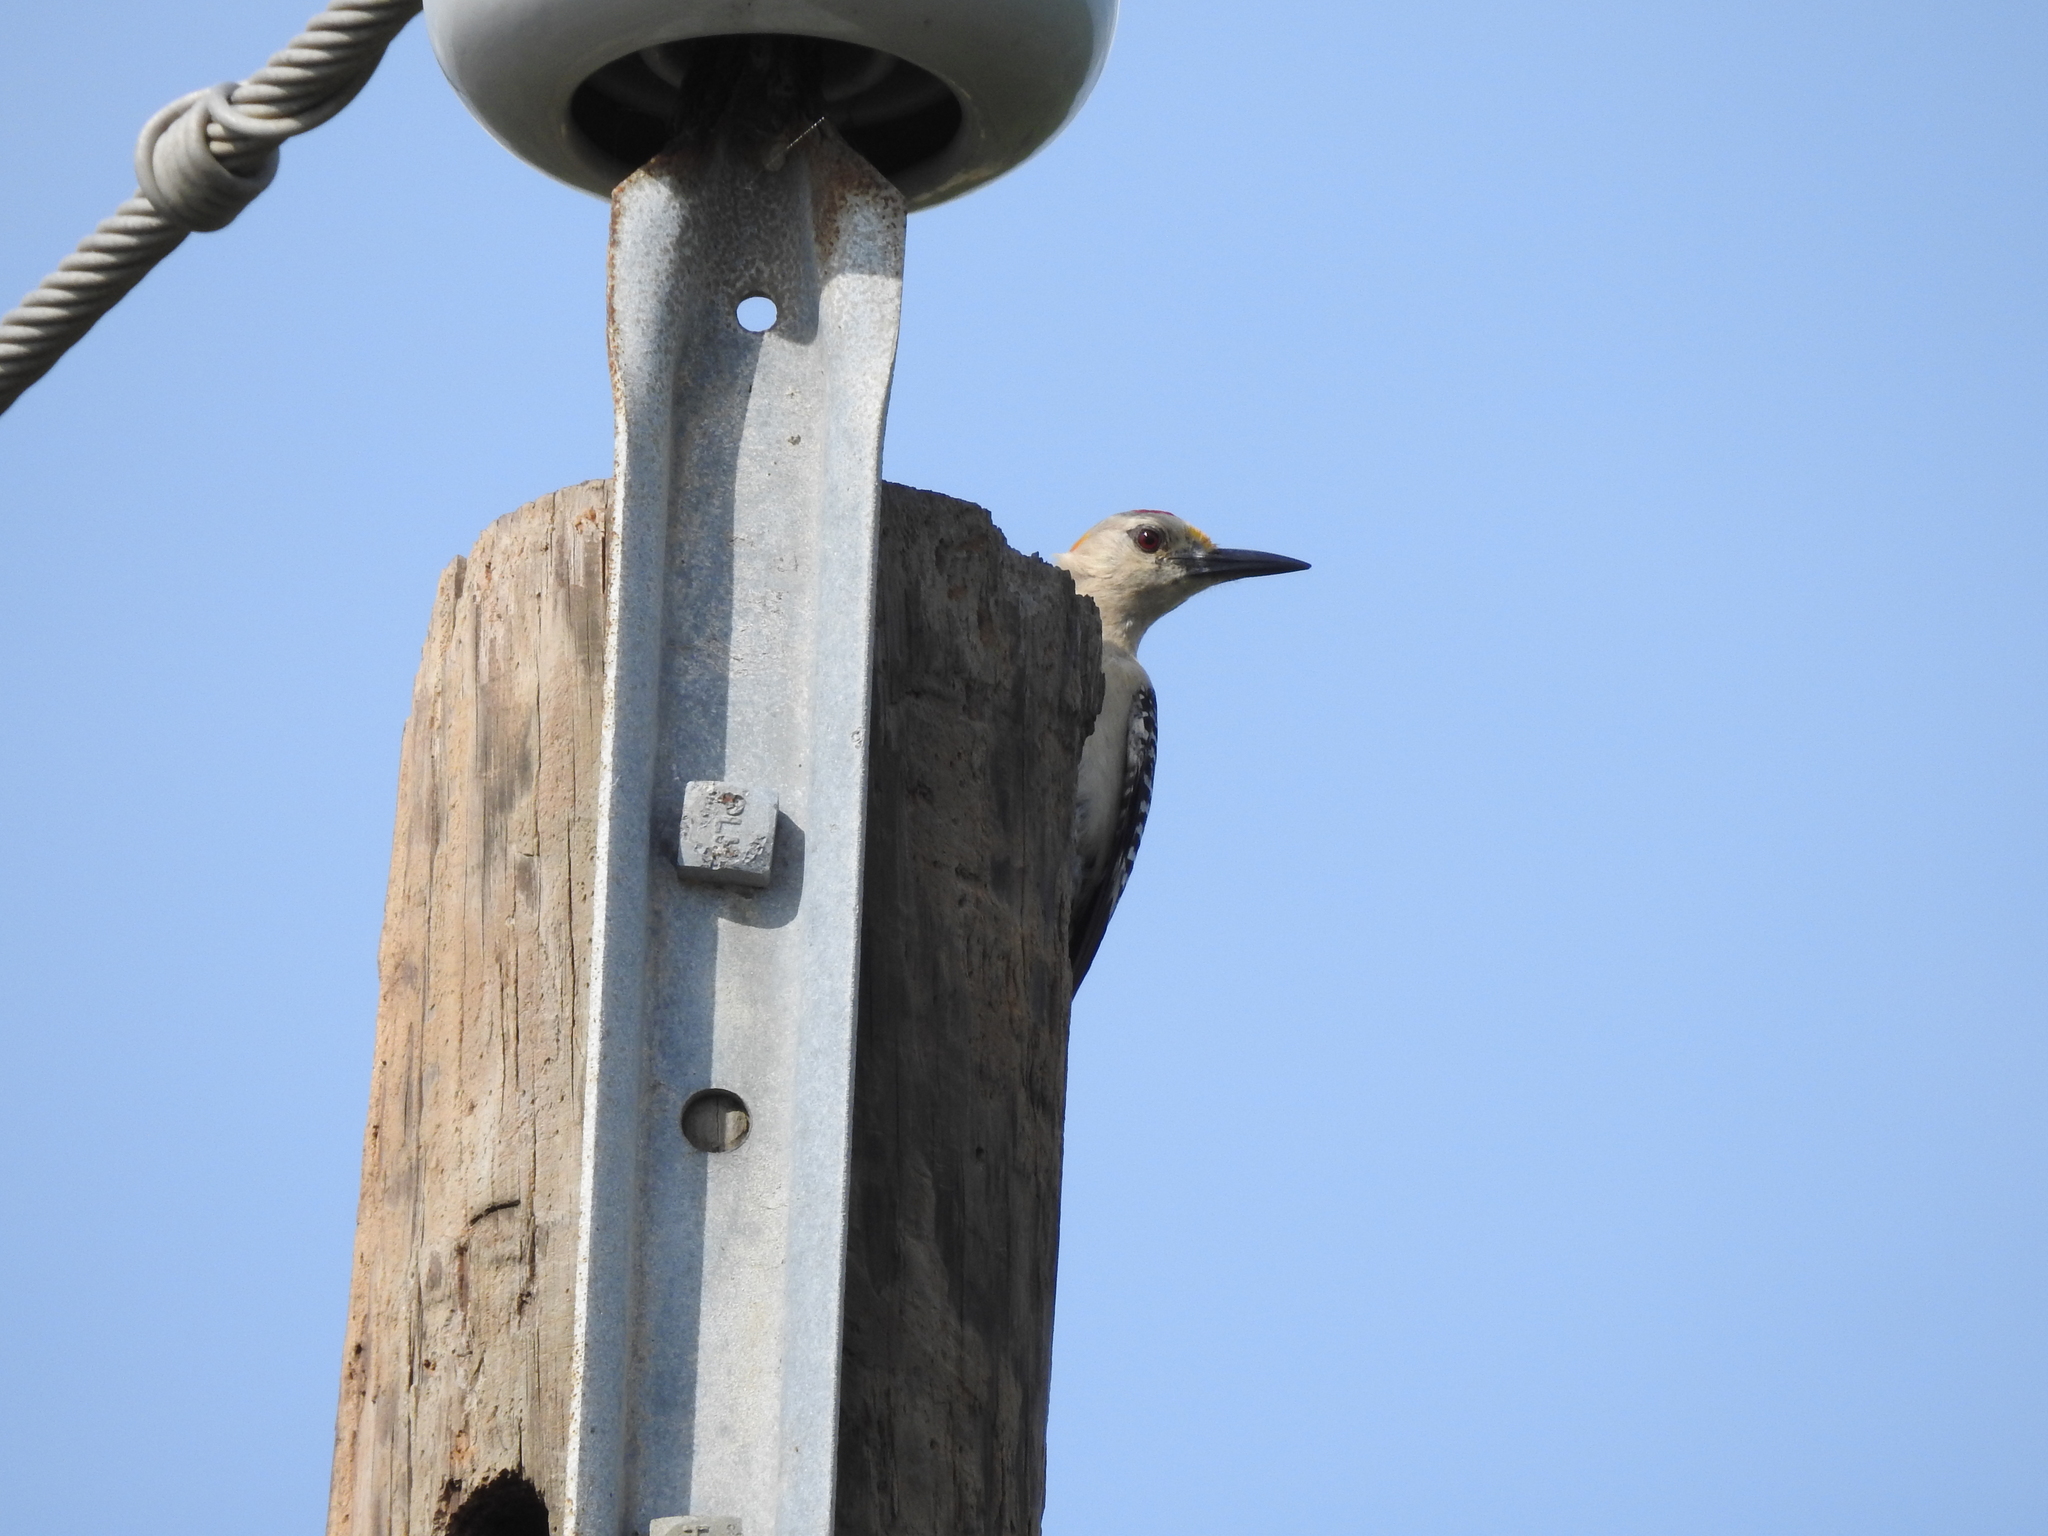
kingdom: Animalia
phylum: Chordata
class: Aves
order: Piciformes
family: Picidae
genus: Melanerpes
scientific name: Melanerpes aurifrons
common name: Golden-fronted woodpecker
